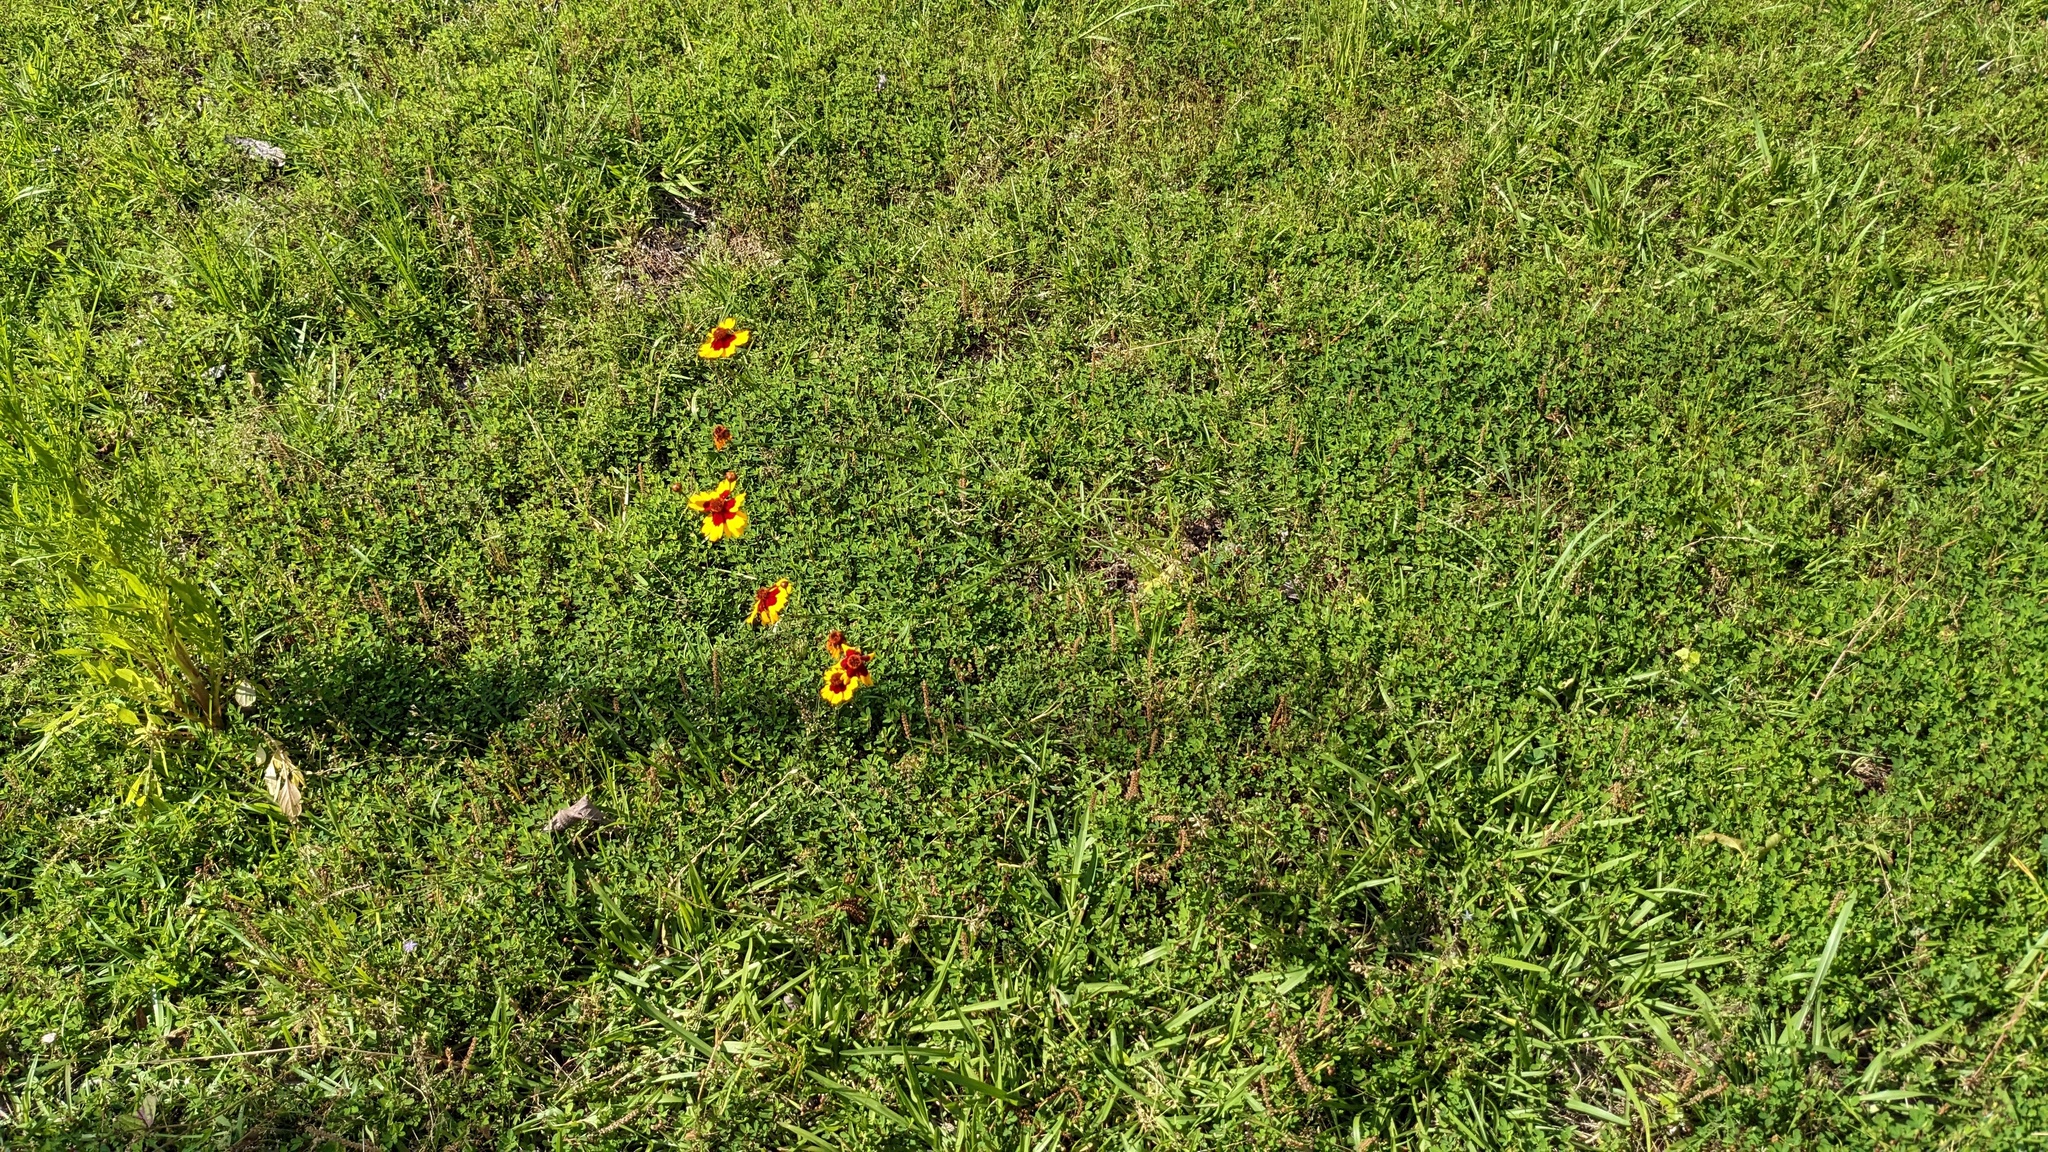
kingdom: Plantae
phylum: Tracheophyta
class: Magnoliopsida
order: Asterales
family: Asteraceae
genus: Coreopsis
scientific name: Coreopsis tinctoria
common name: Garden tickseed
